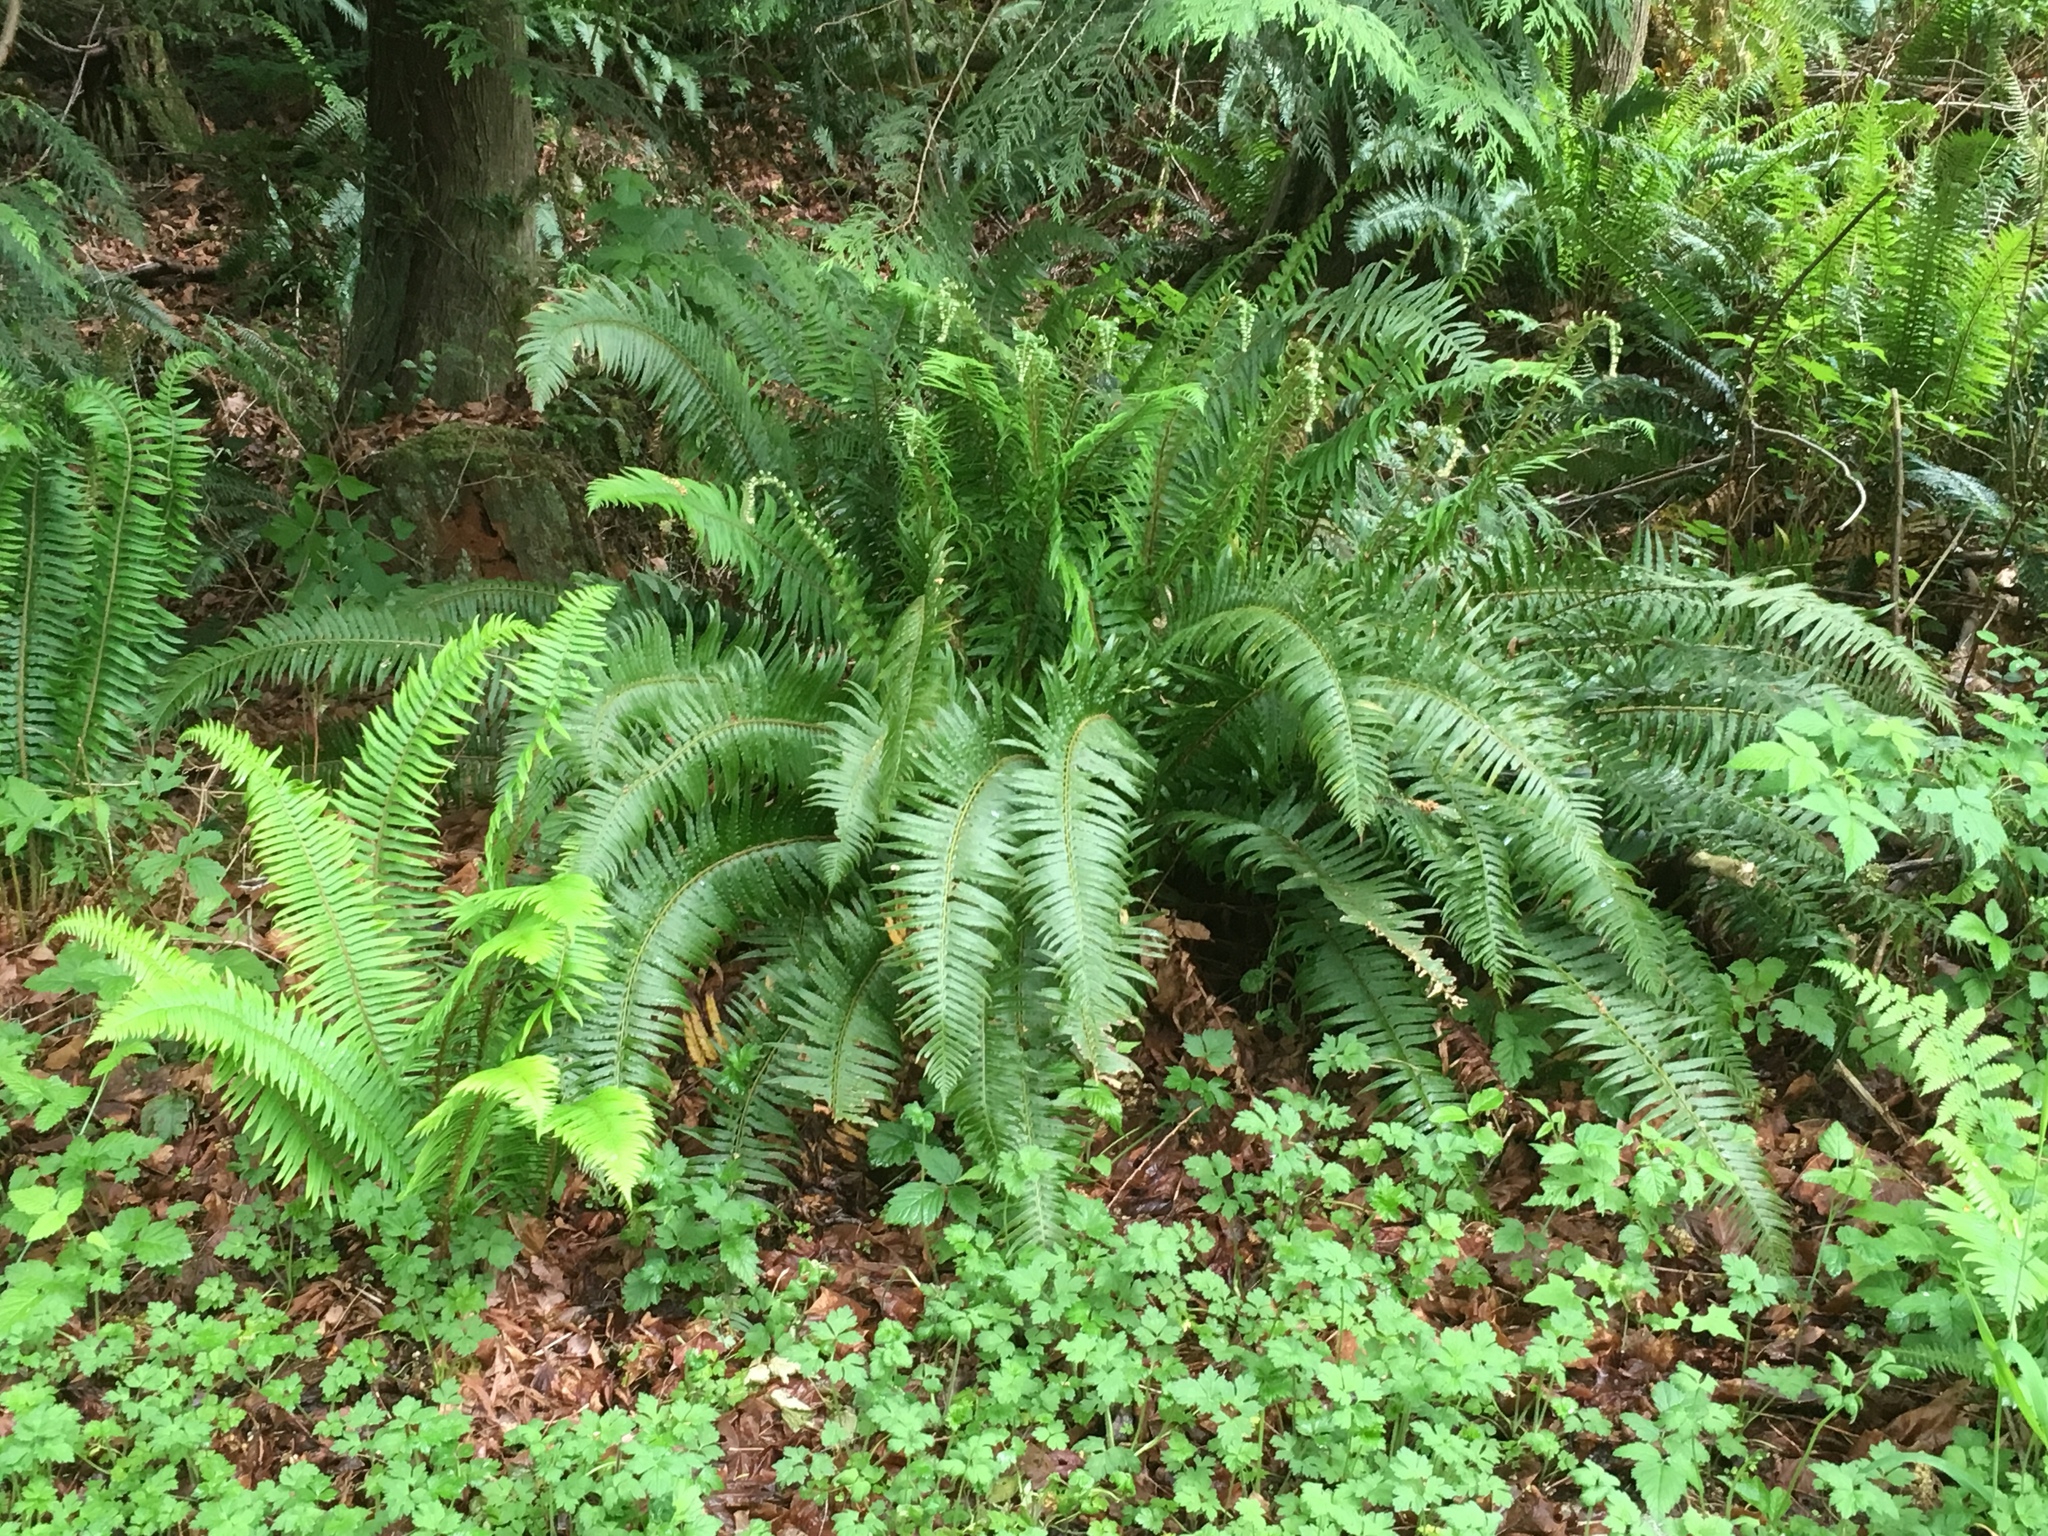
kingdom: Plantae
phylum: Tracheophyta
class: Polypodiopsida
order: Polypodiales
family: Dryopteridaceae
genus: Polystichum
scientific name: Polystichum munitum
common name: Western sword-fern
